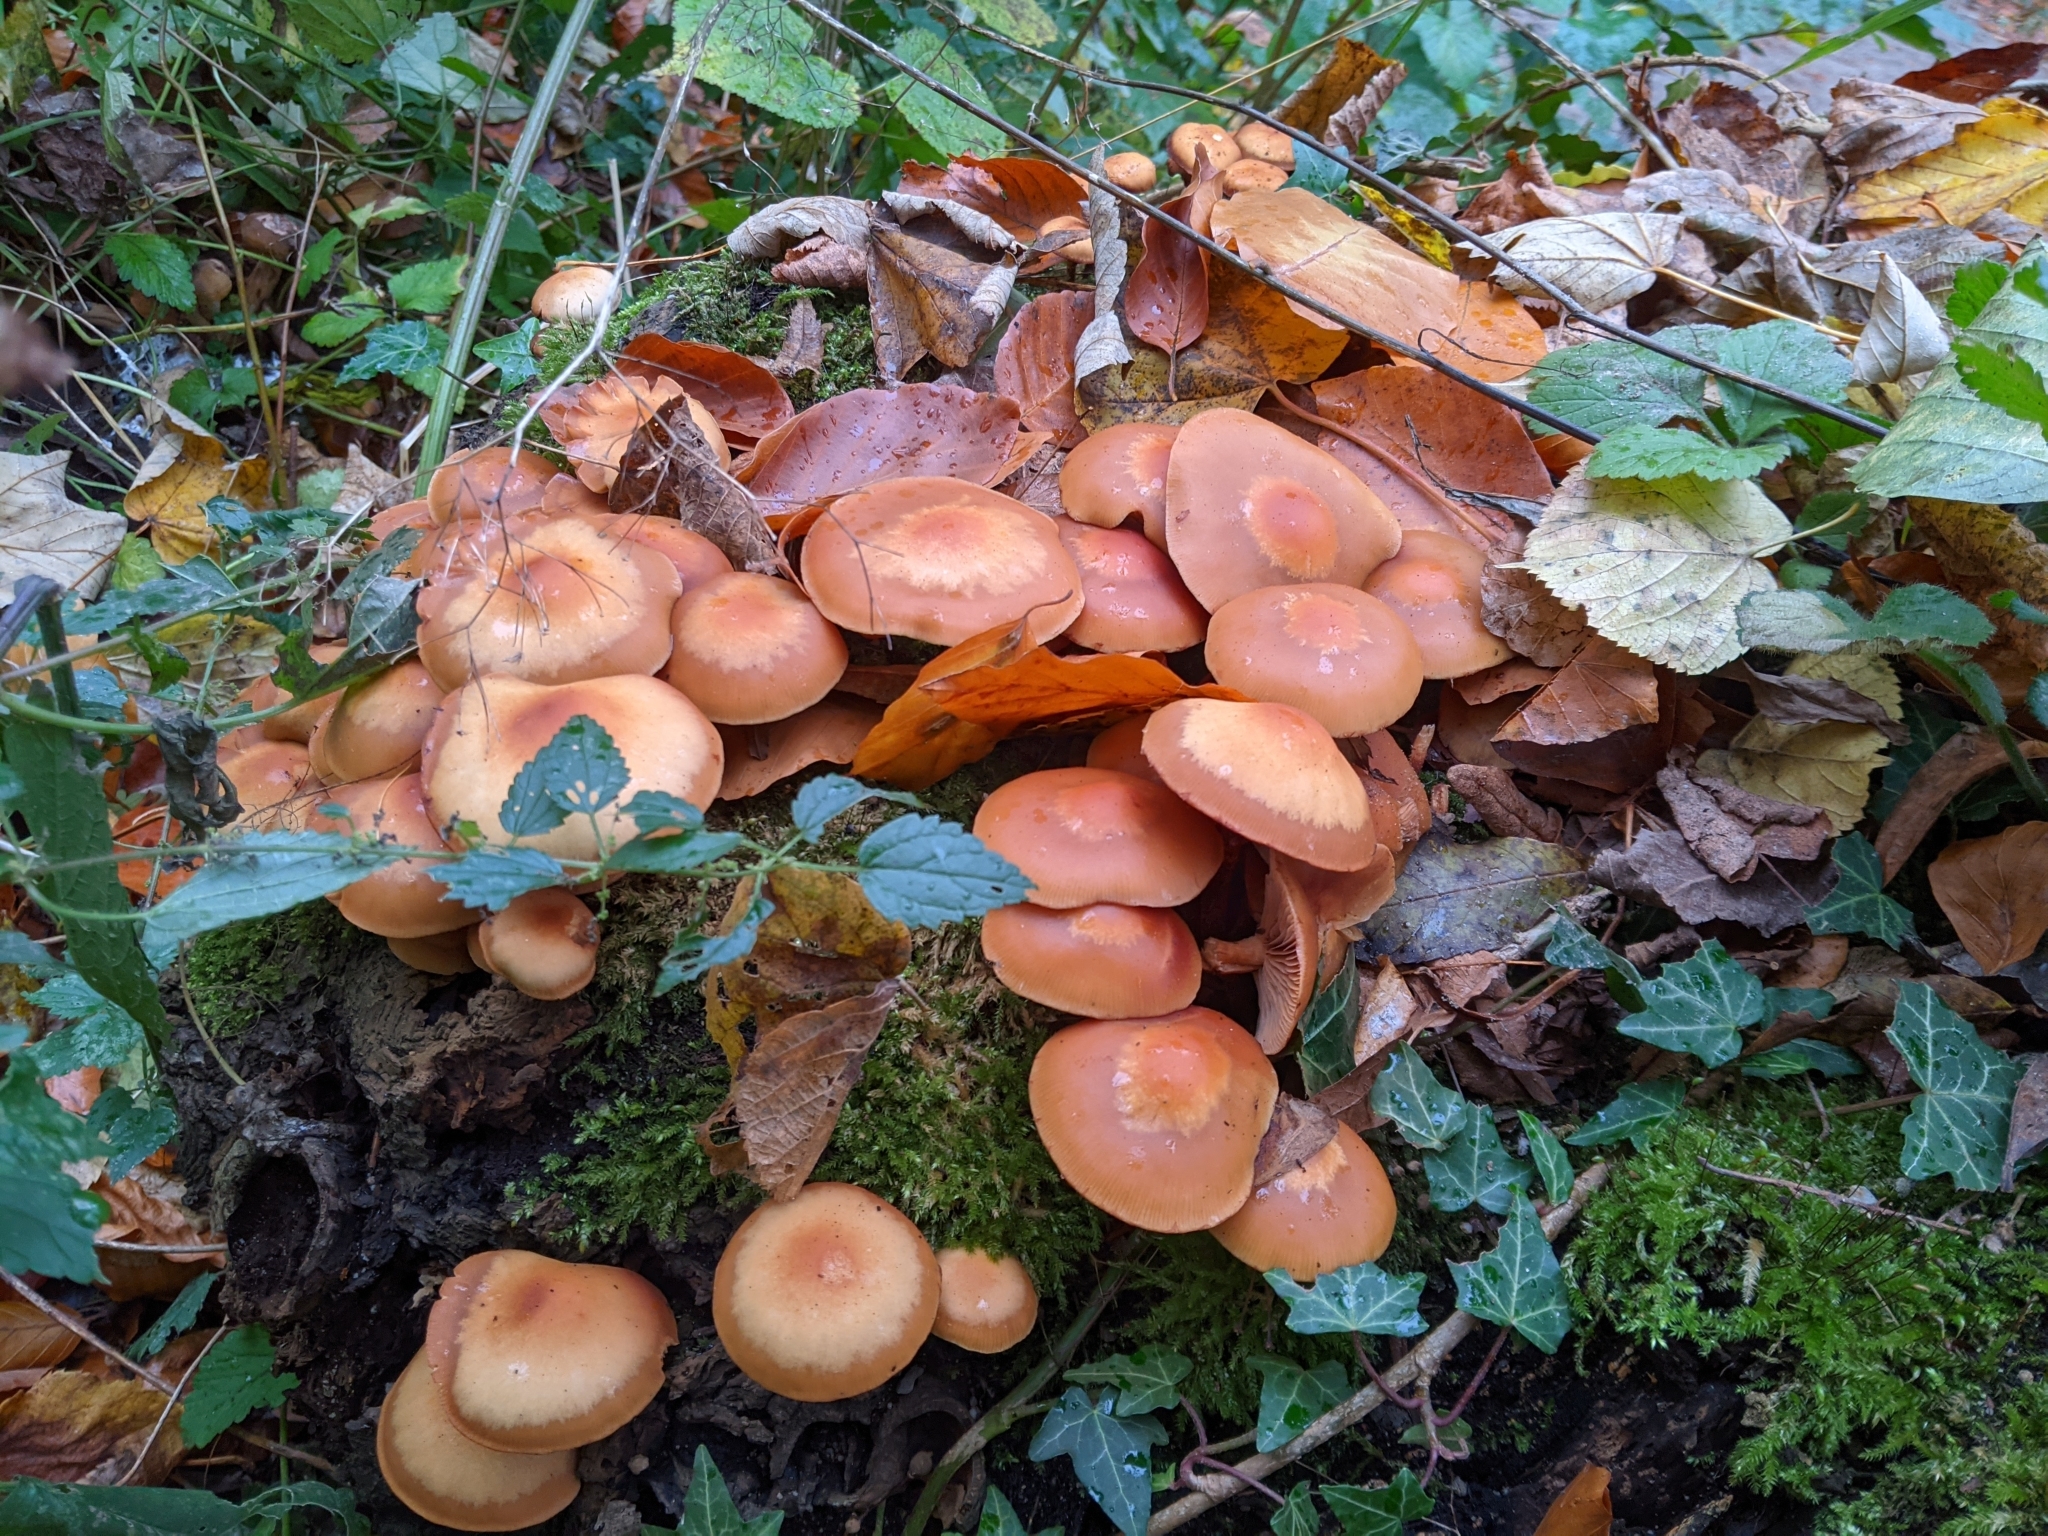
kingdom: Fungi
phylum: Basidiomycota
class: Agaricomycetes
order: Agaricales
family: Strophariaceae
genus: Kuehneromyces
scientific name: Kuehneromyces mutabilis
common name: Sheathed woodtuft
